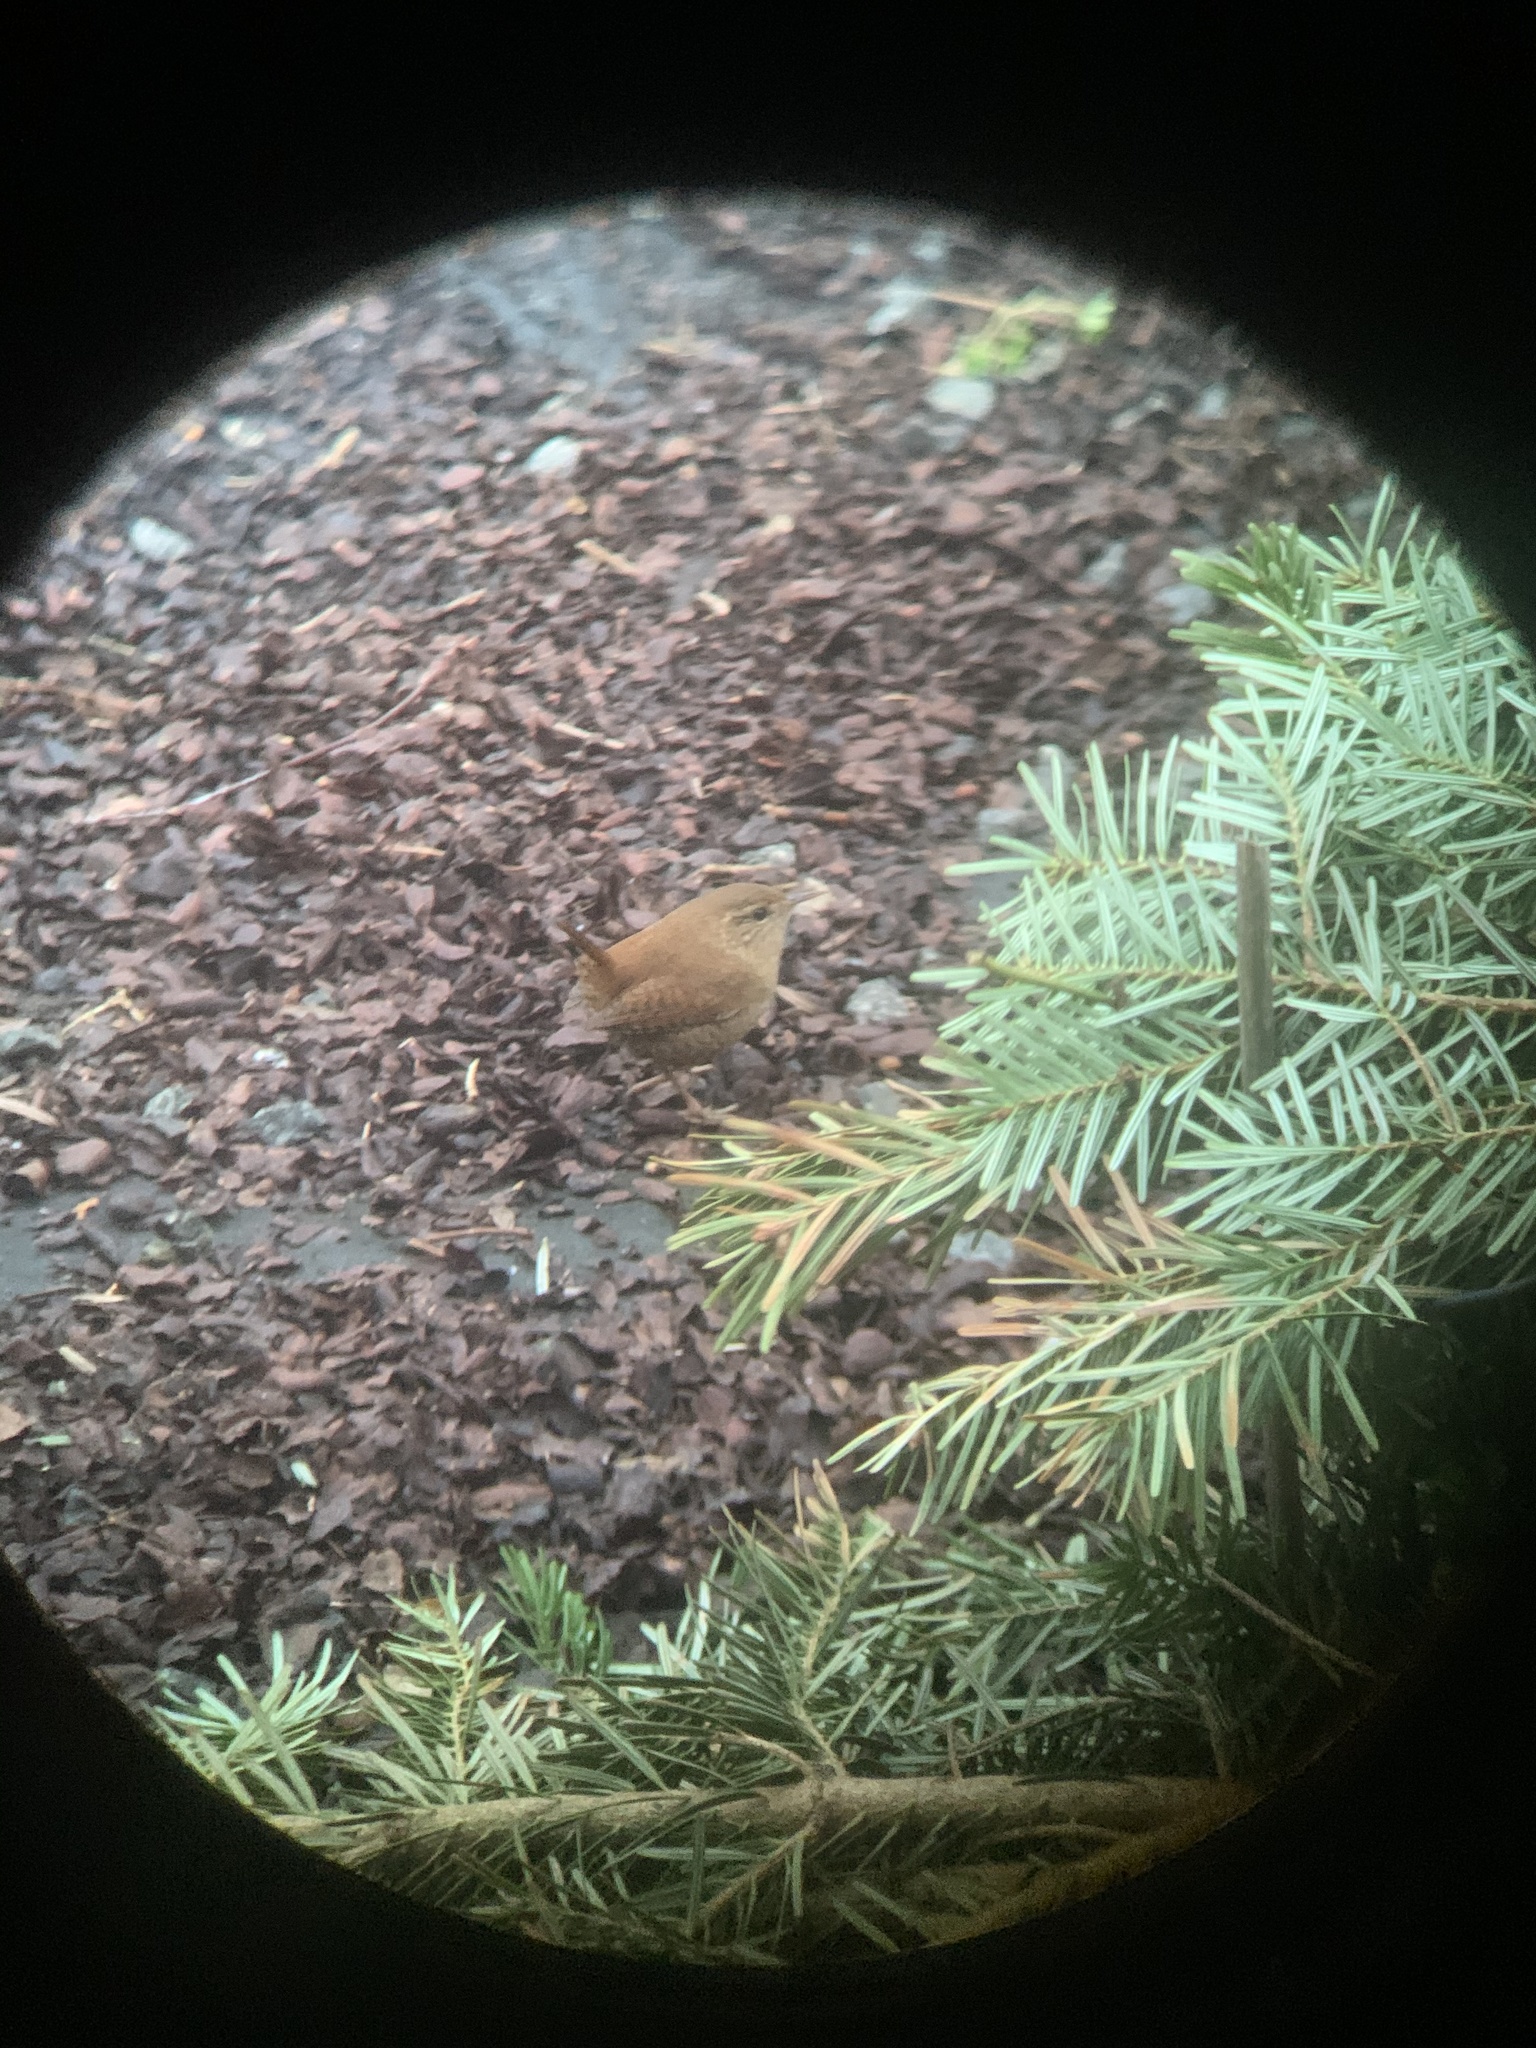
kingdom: Animalia
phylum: Chordata
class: Aves
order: Passeriformes
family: Troglodytidae
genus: Troglodytes
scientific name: Troglodytes troglodytes
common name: Eurasian wren
